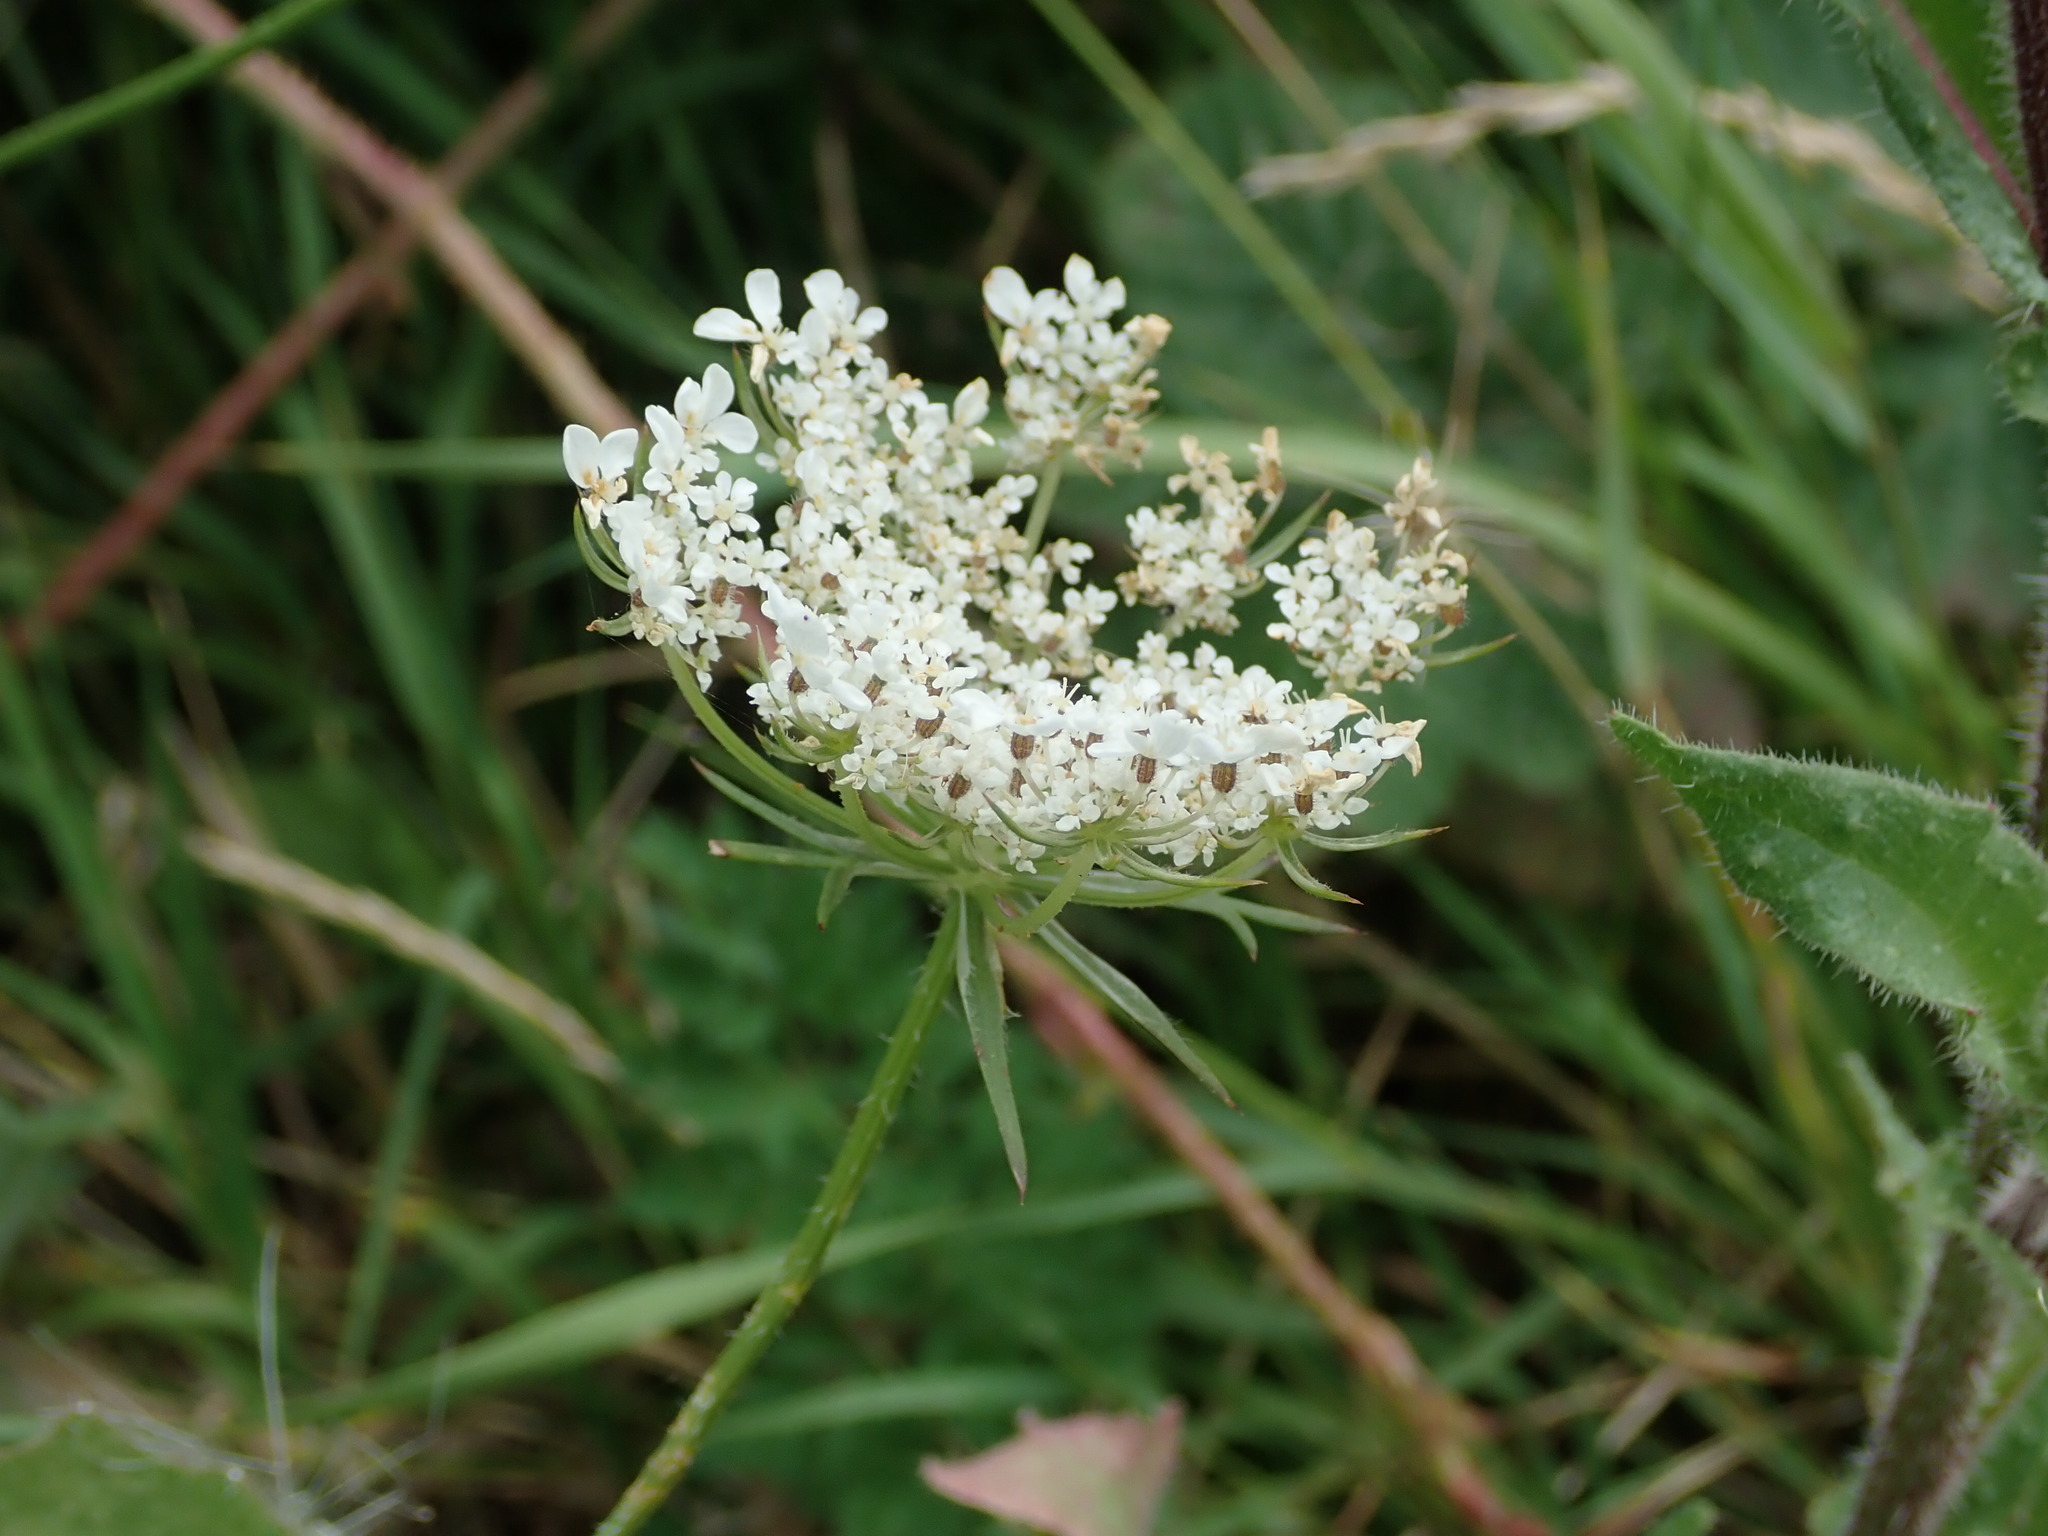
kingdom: Plantae
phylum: Tracheophyta
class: Magnoliopsida
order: Apiales
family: Apiaceae
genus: Daucus
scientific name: Daucus carota
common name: Wild carrot
